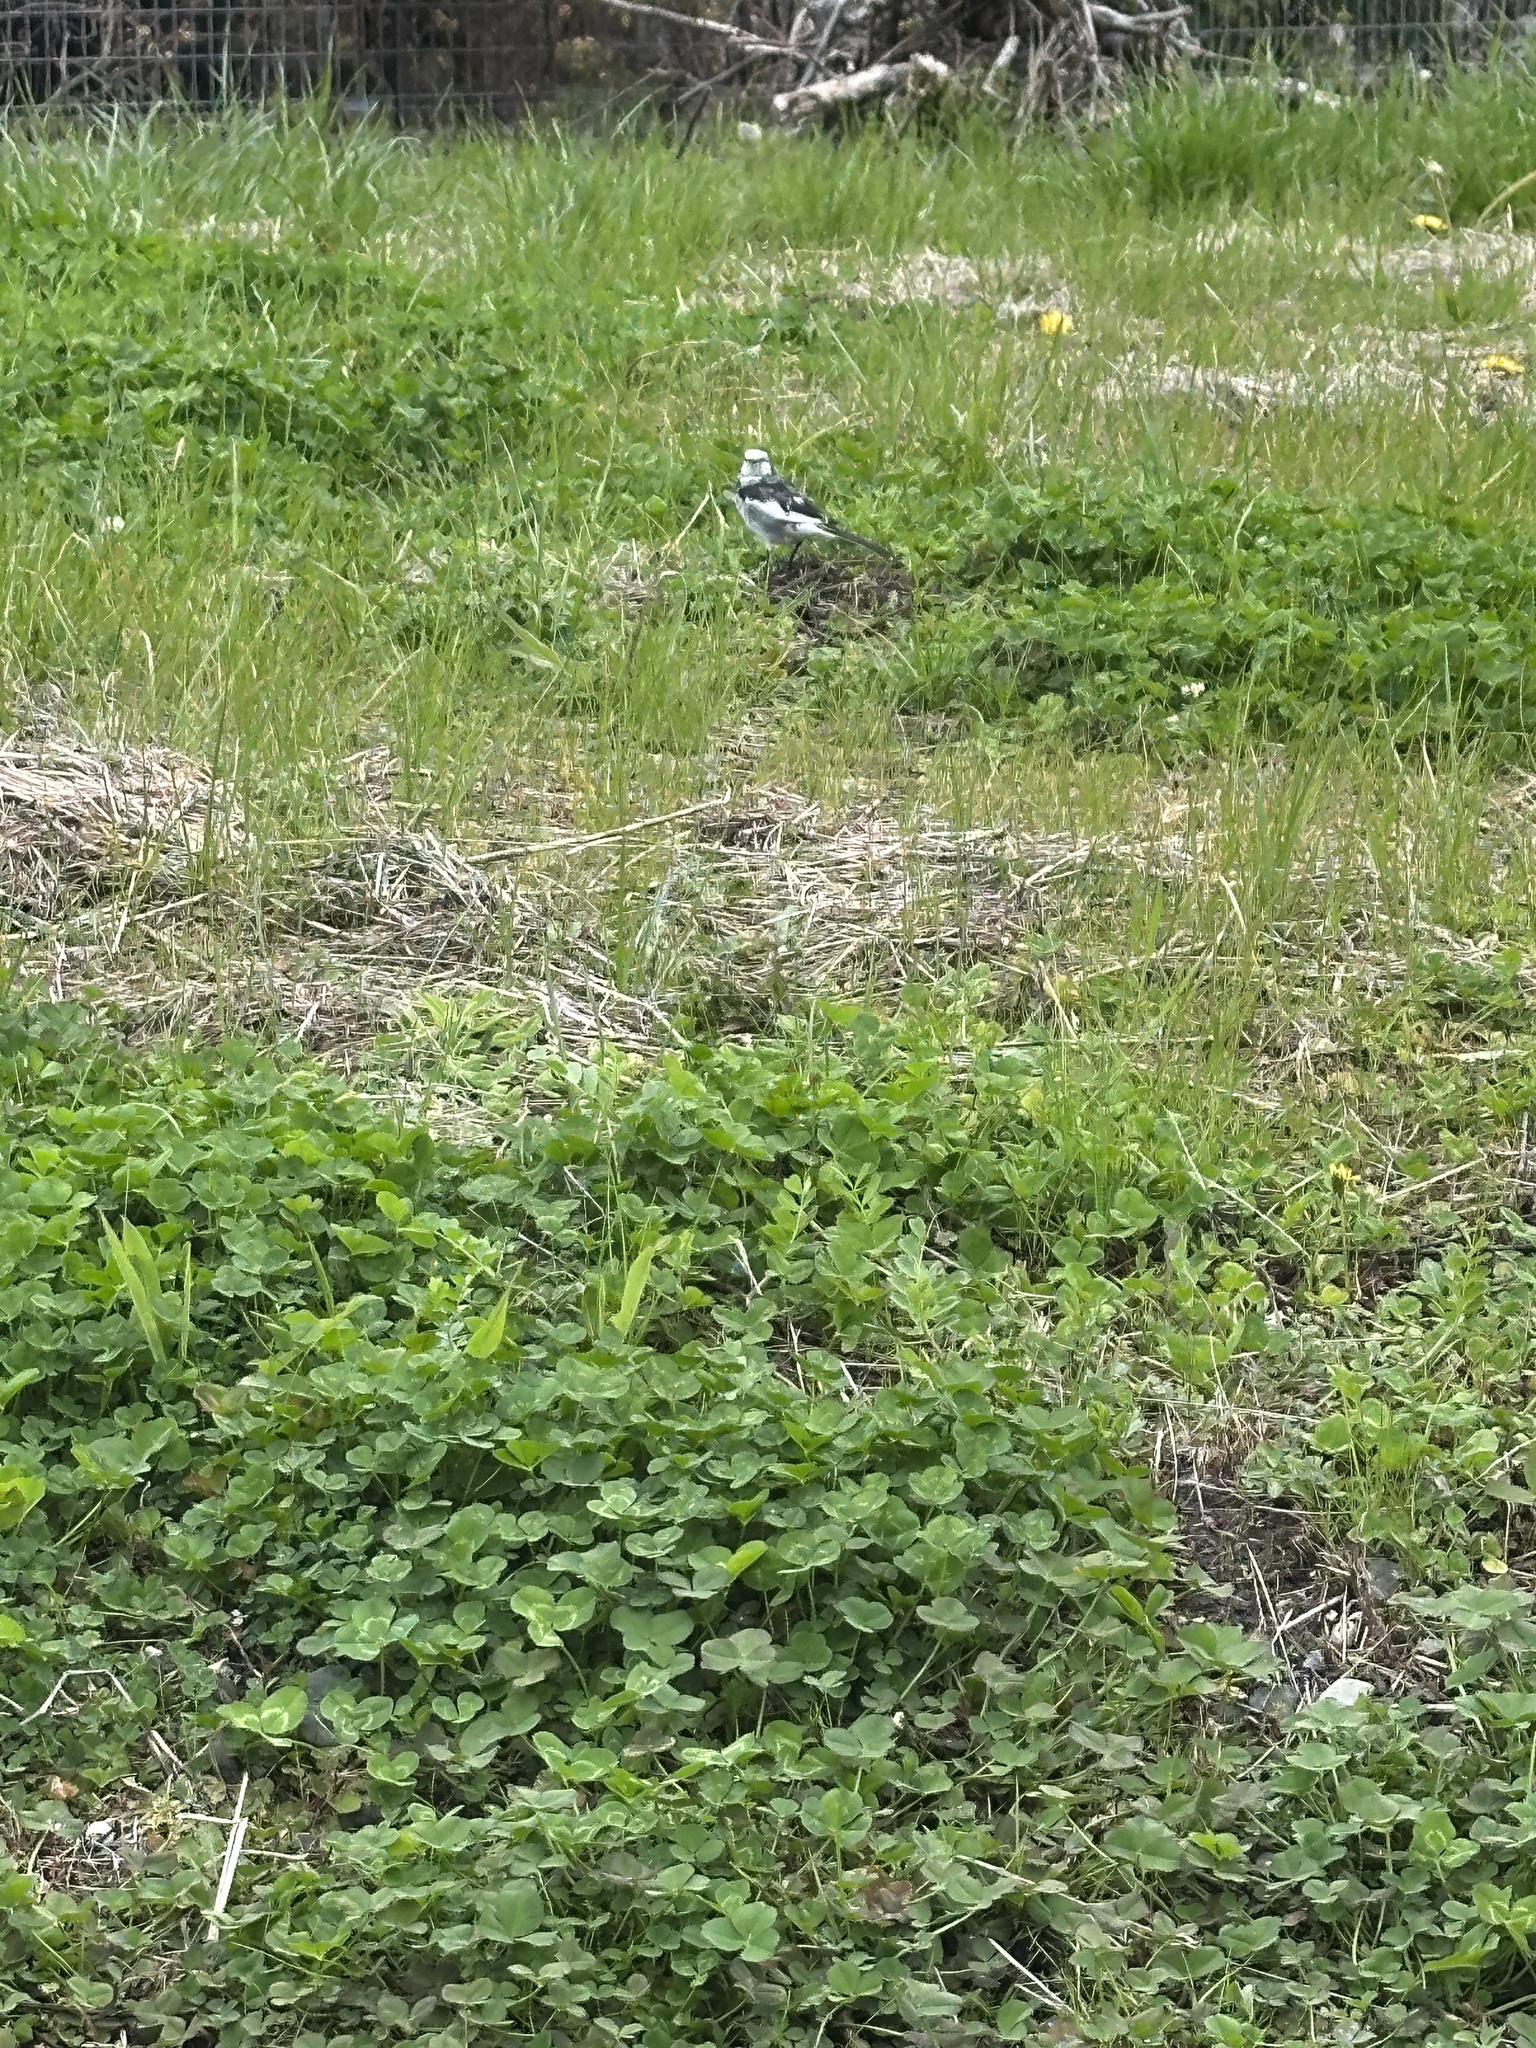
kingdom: Animalia
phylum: Chordata
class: Aves
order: Passeriformes
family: Motacillidae
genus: Motacilla
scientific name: Motacilla alba
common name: White wagtail
